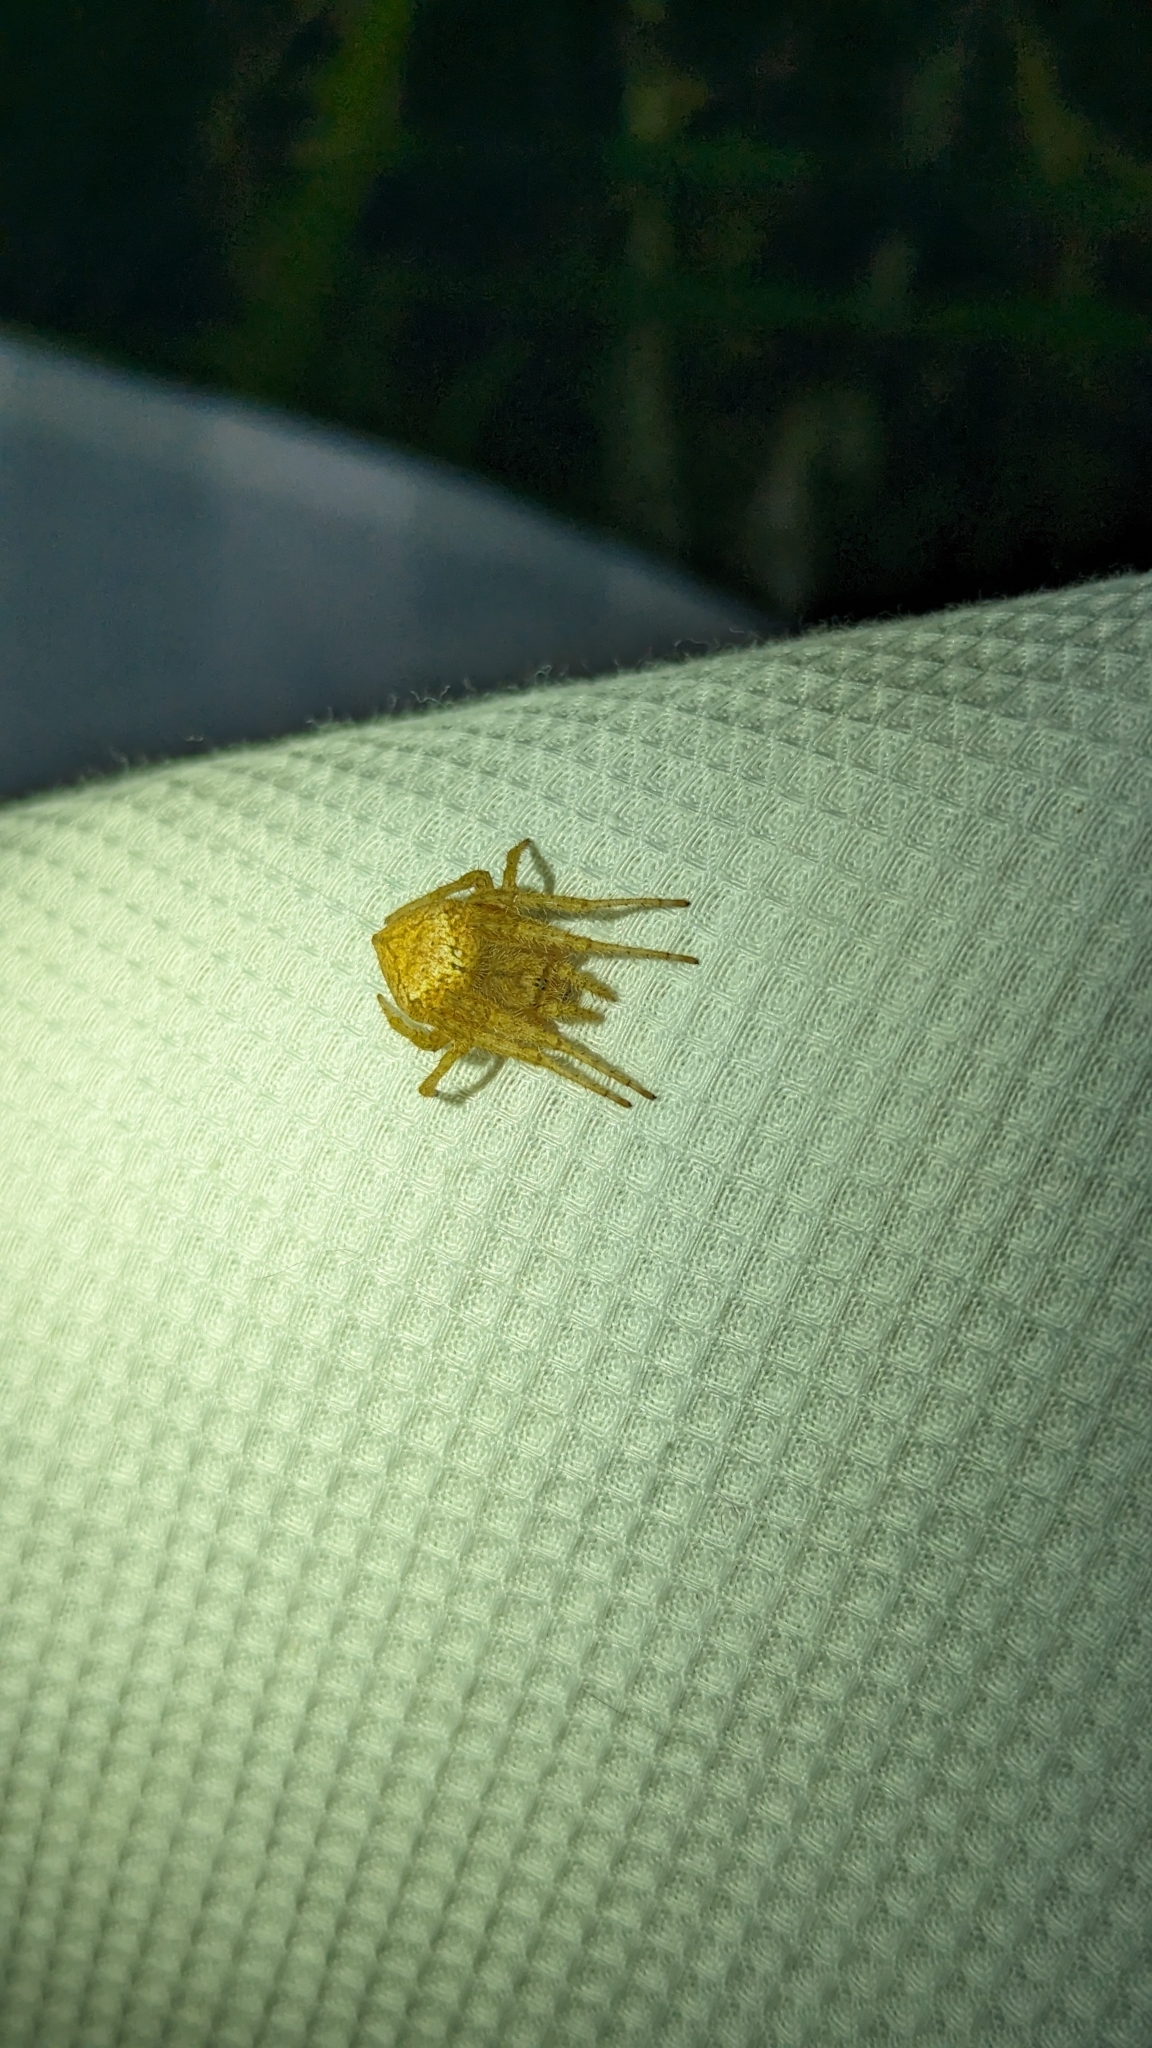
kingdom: Animalia
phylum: Arthropoda
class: Arachnida
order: Araneae
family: Araneidae
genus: Eriophora
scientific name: Eriophora edax
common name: Orb weavers
